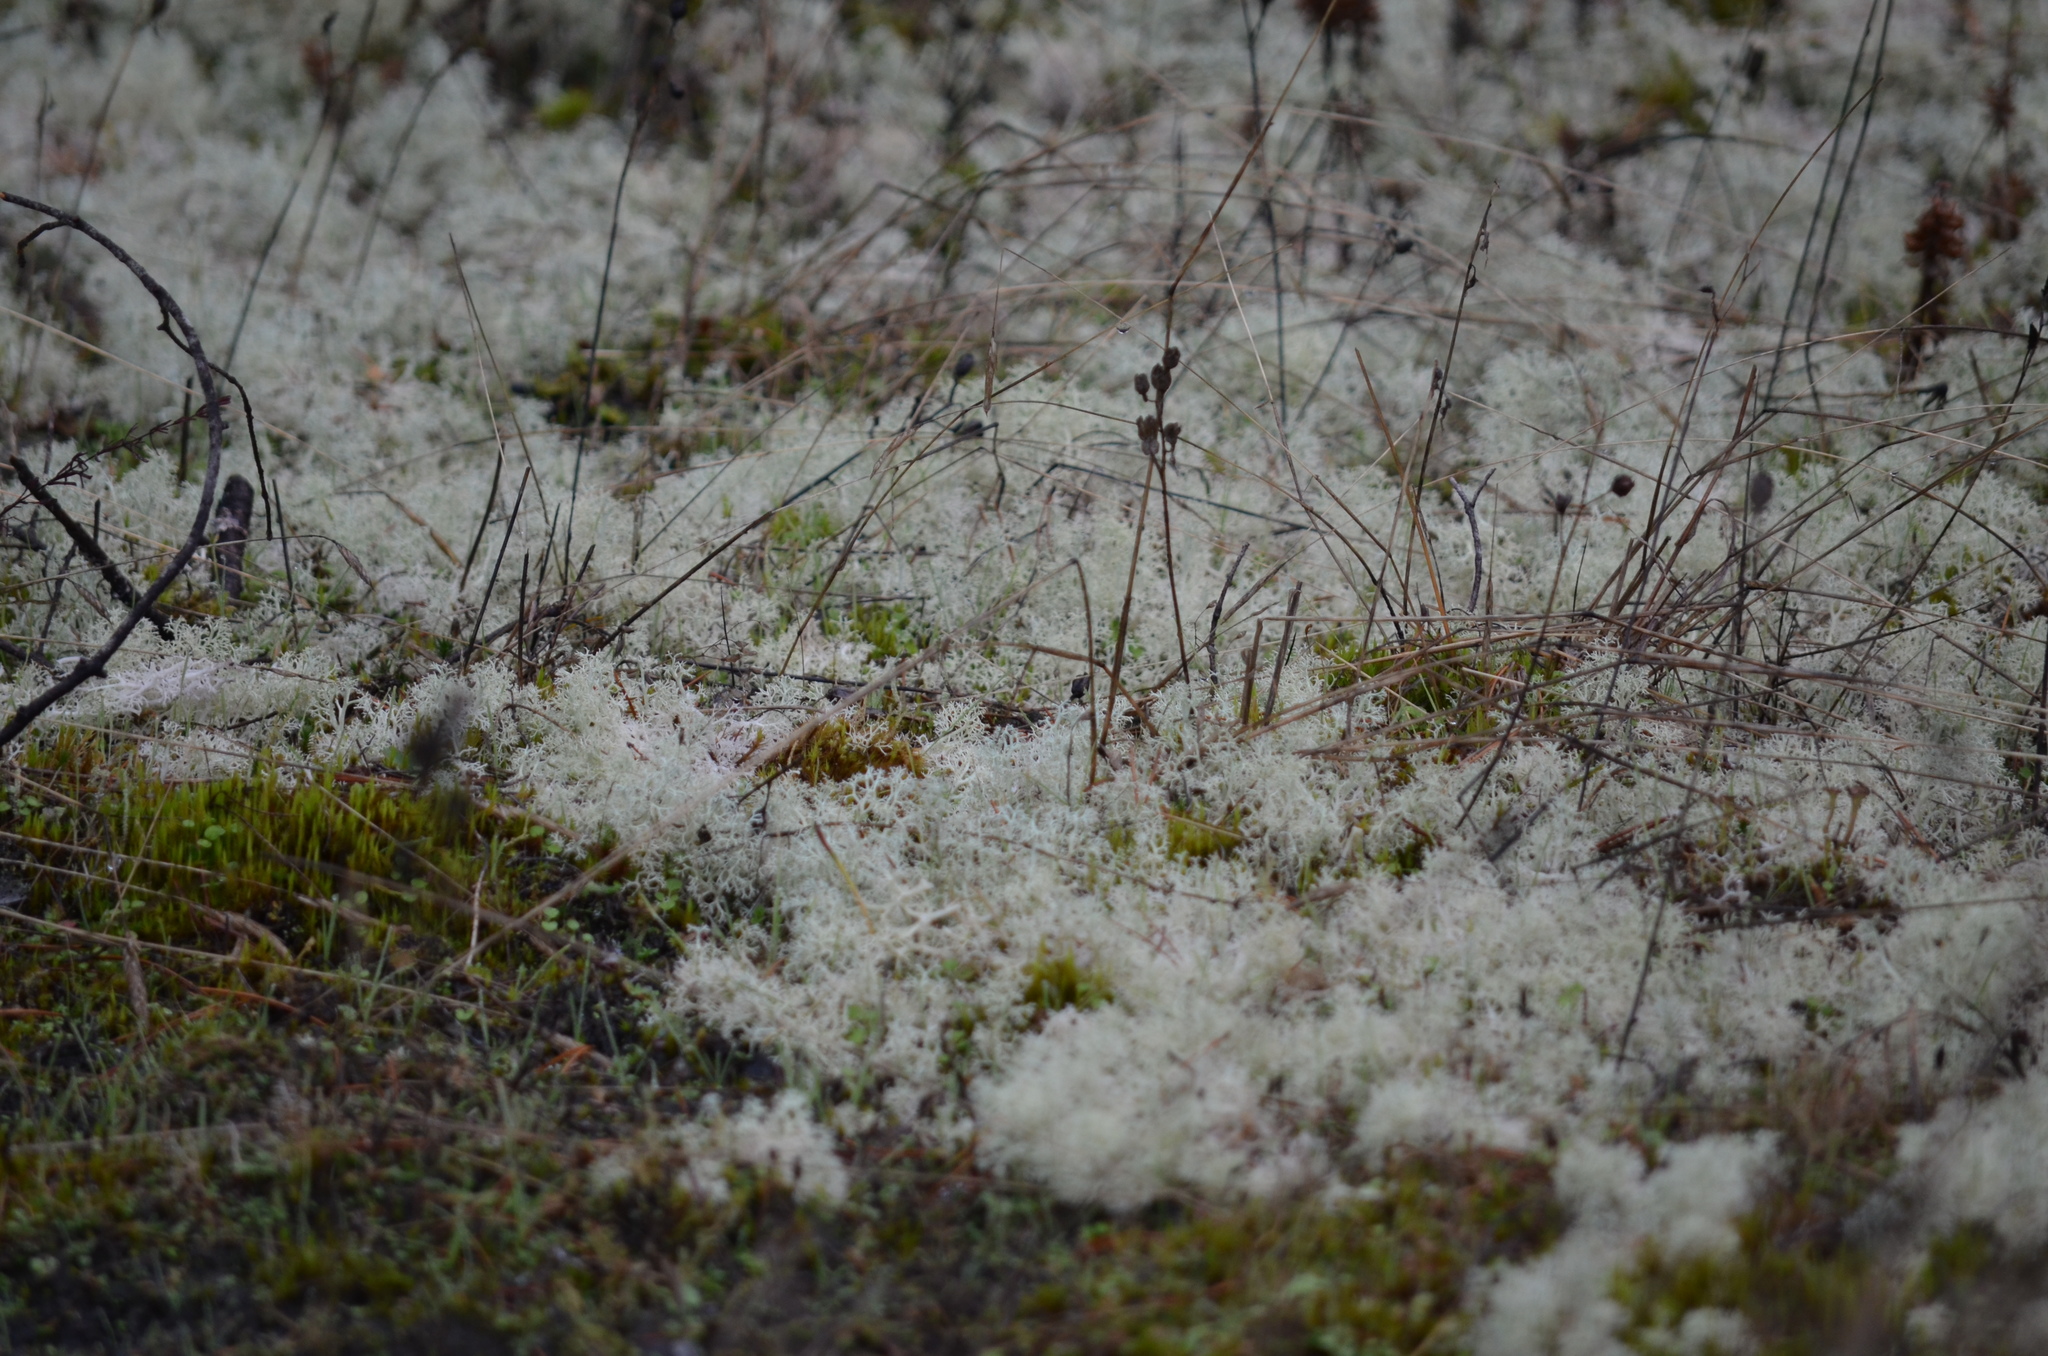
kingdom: Fungi
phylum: Ascomycota
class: Lecanoromycetes
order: Lecanorales
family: Cladoniaceae
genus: Cladonia
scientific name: Cladonia portentosa
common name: Reindeer lichen
